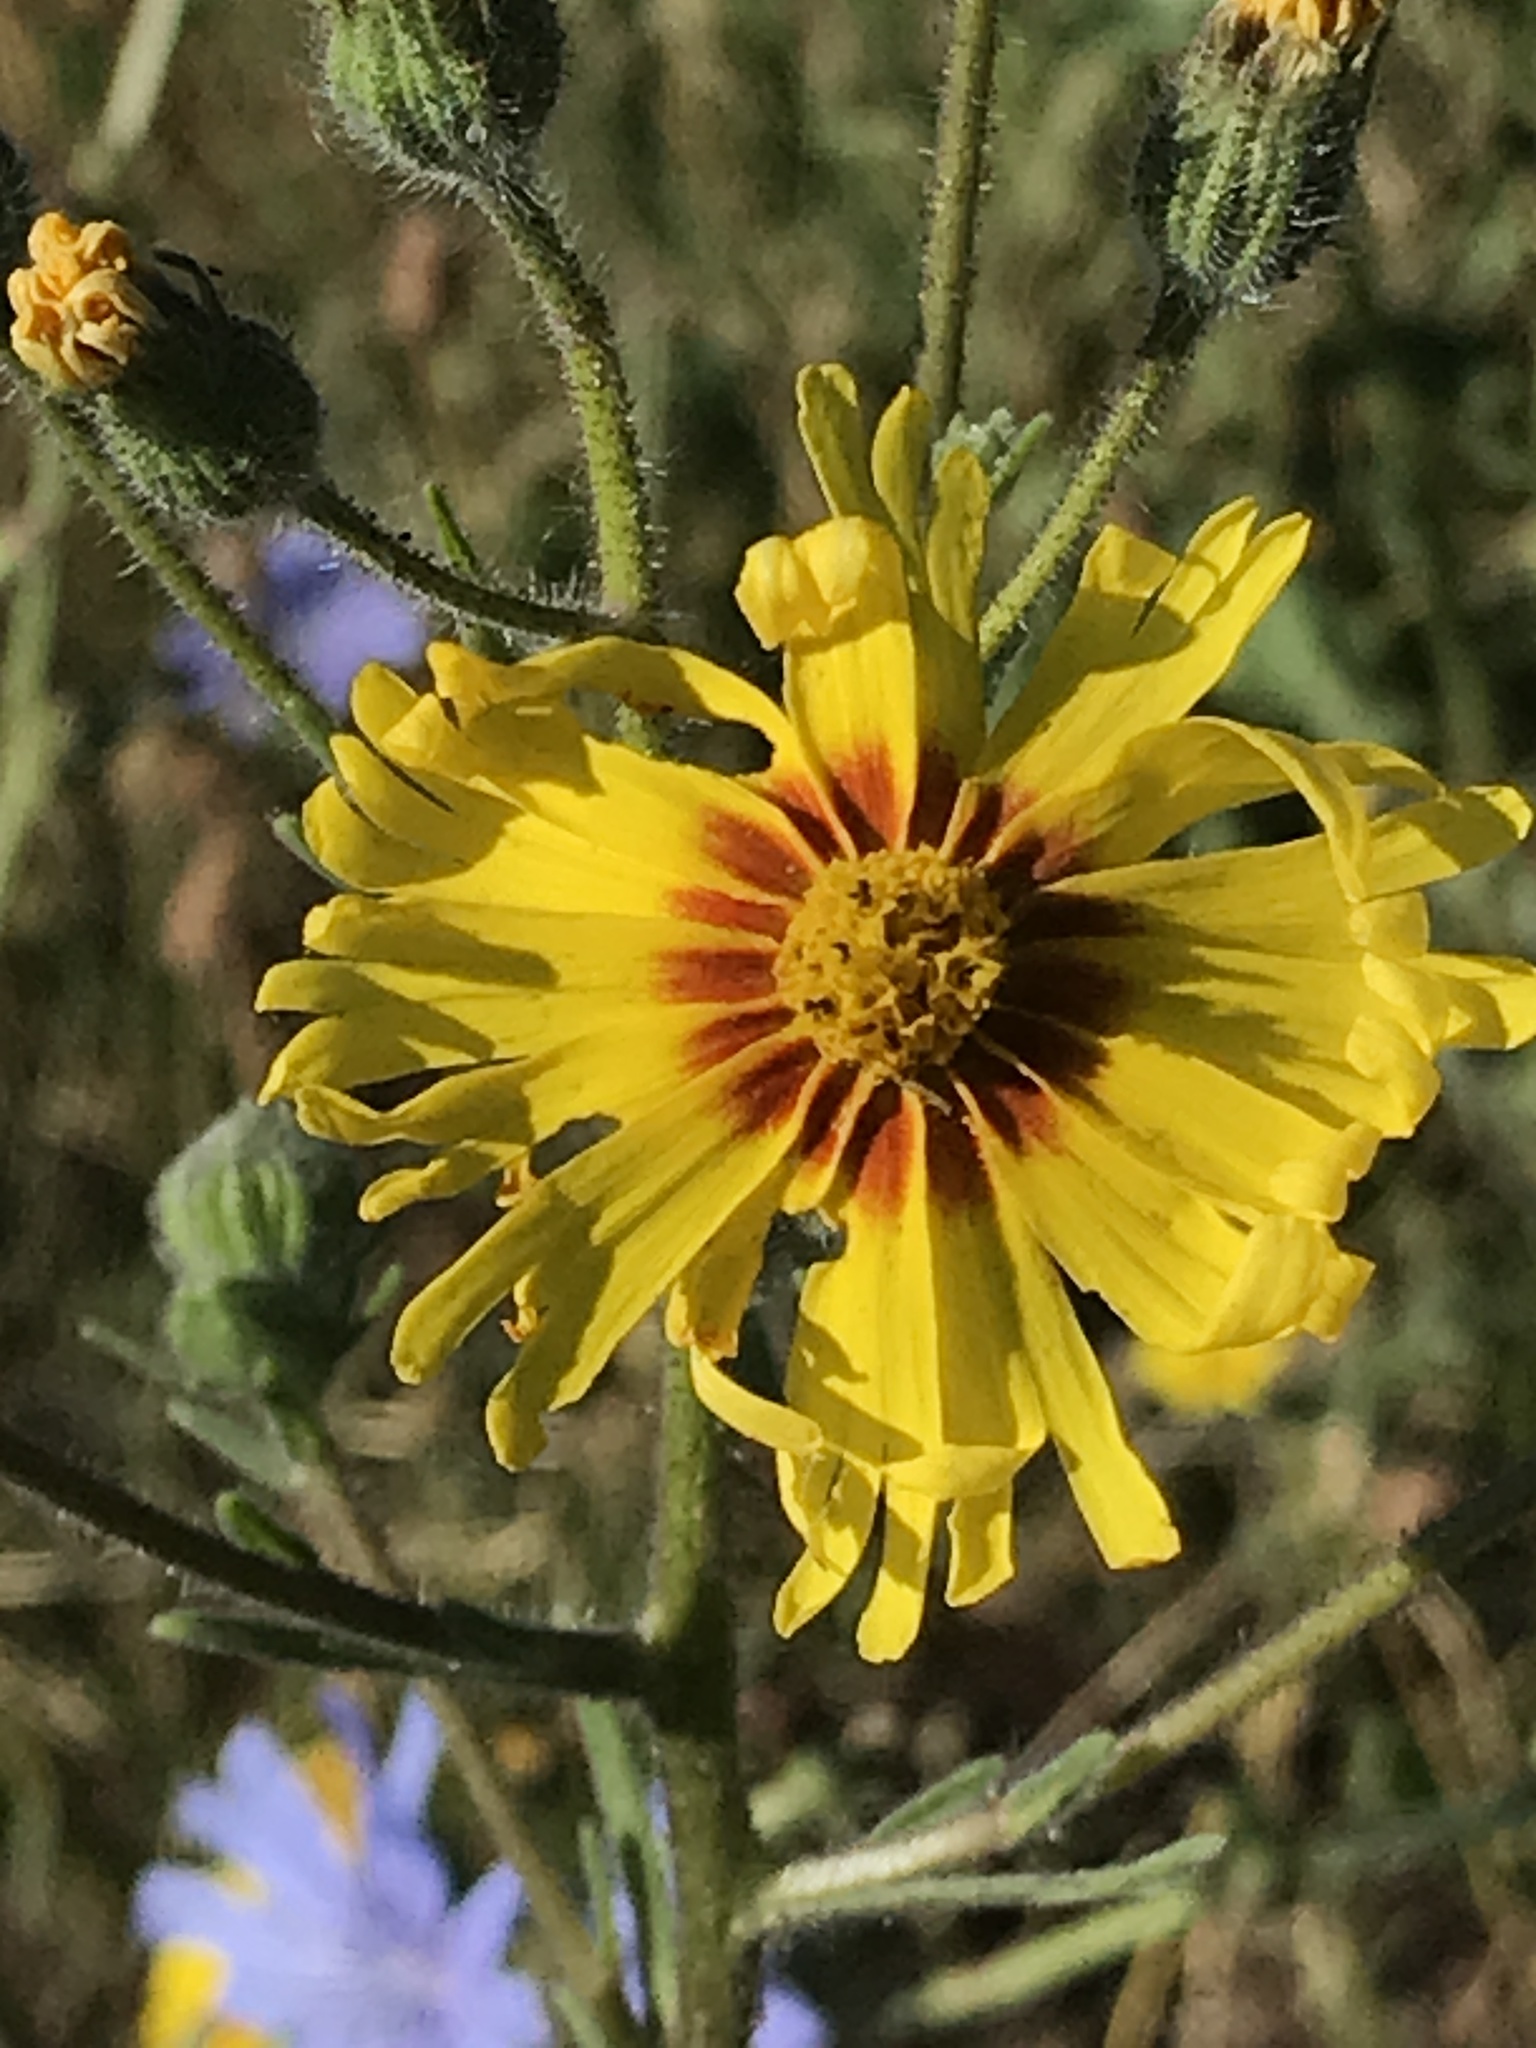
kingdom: Plantae
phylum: Tracheophyta
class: Magnoliopsida
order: Asterales
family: Asteraceae
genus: Madia
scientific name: Madia elegans
